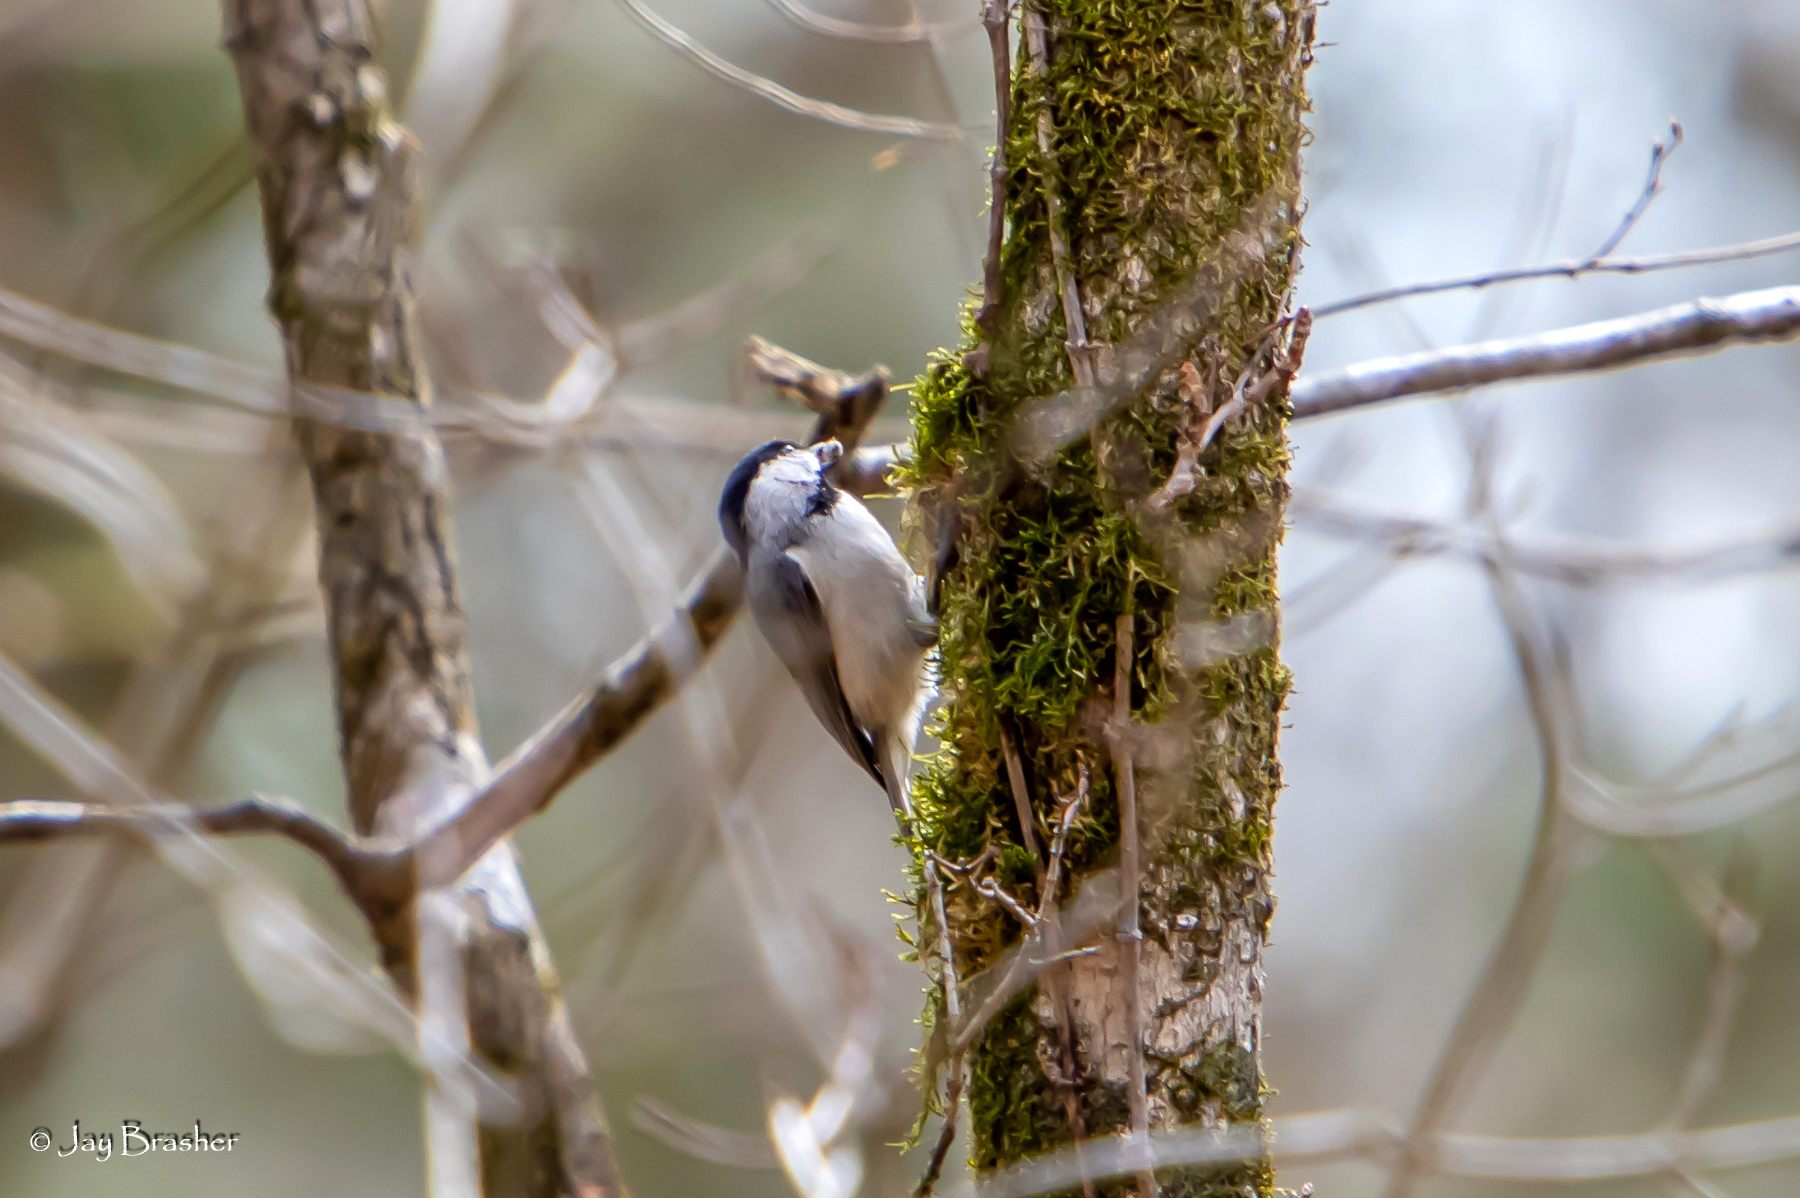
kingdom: Animalia
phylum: Chordata
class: Aves
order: Passeriformes
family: Paridae
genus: Poecile
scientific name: Poecile carolinensis
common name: Carolina chickadee
